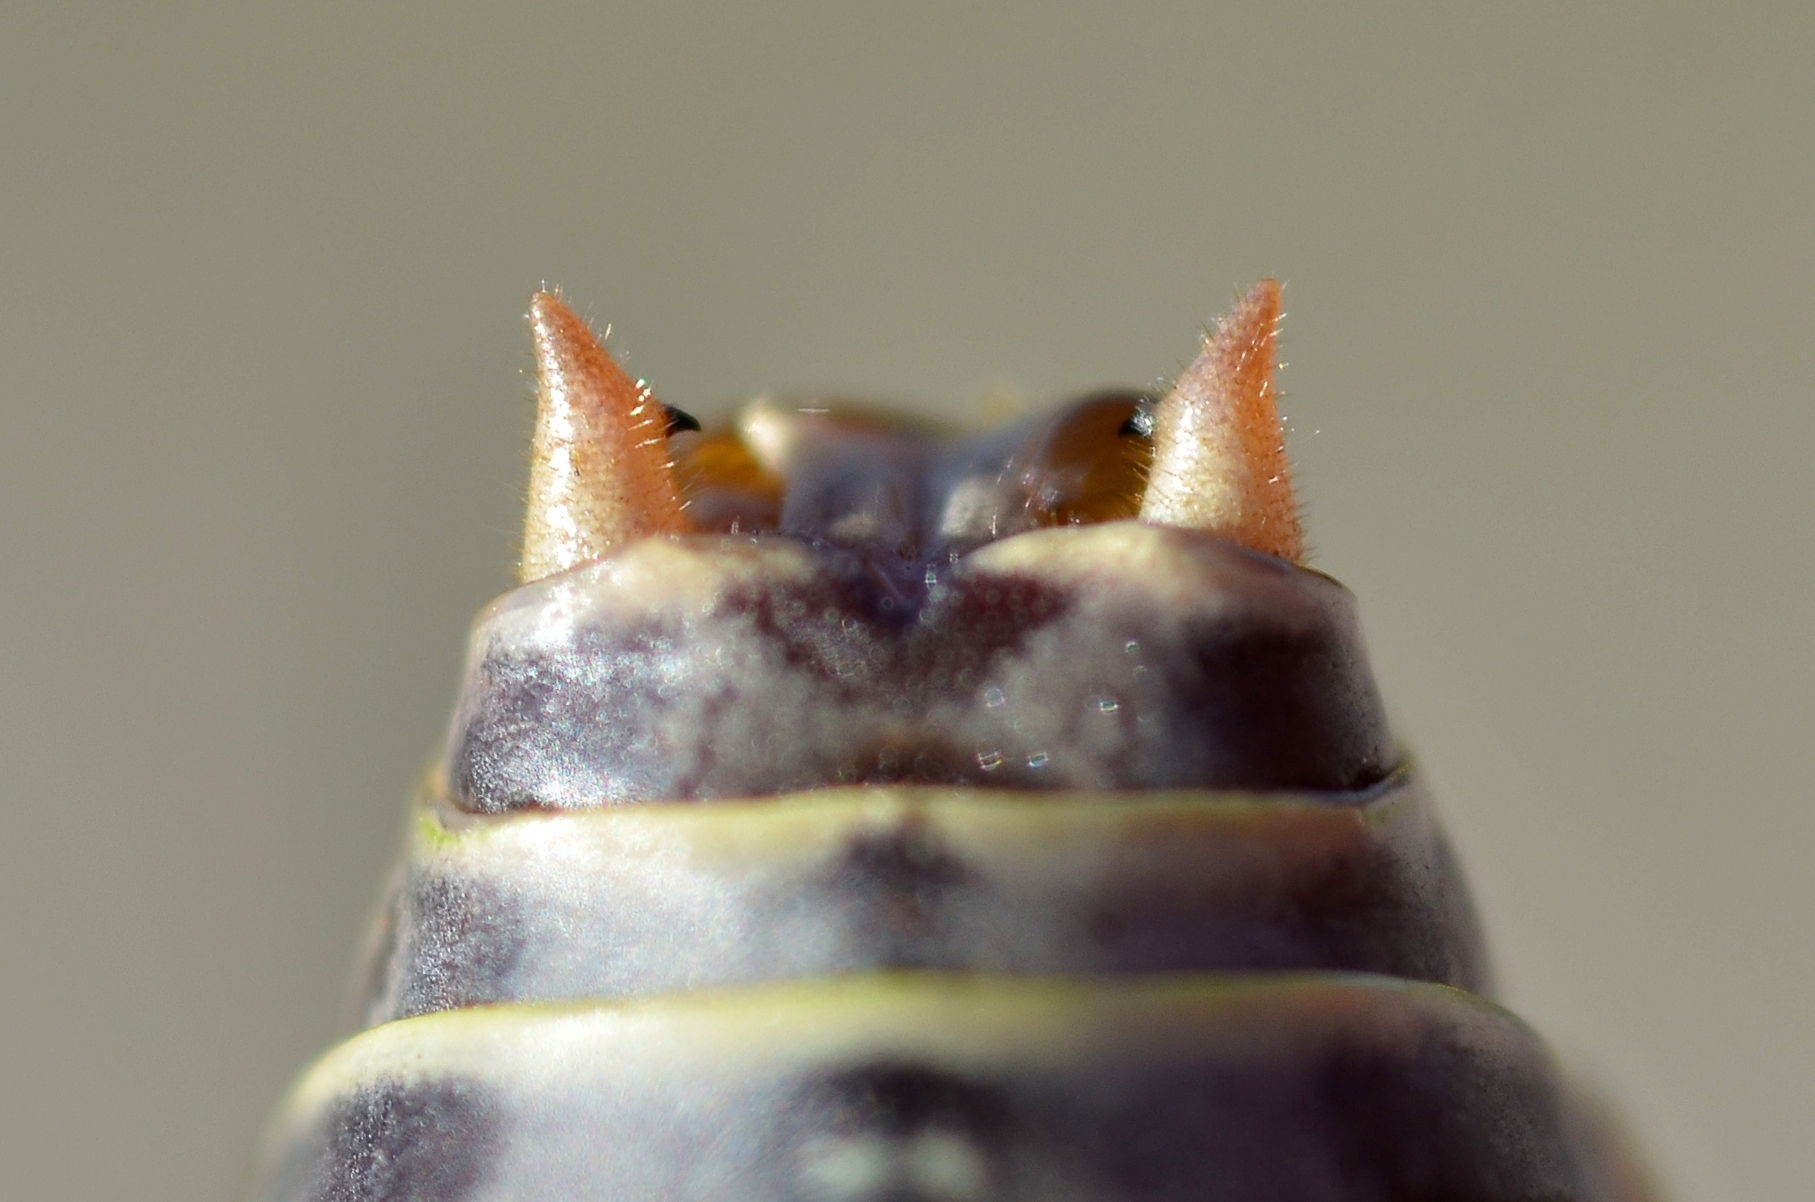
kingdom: Animalia
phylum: Arthropoda
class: Insecta
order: Orthoptera
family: Tettigoniidae
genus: Ephippiger
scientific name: Ephippiger diurnus
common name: Western saddle bush-cricket
